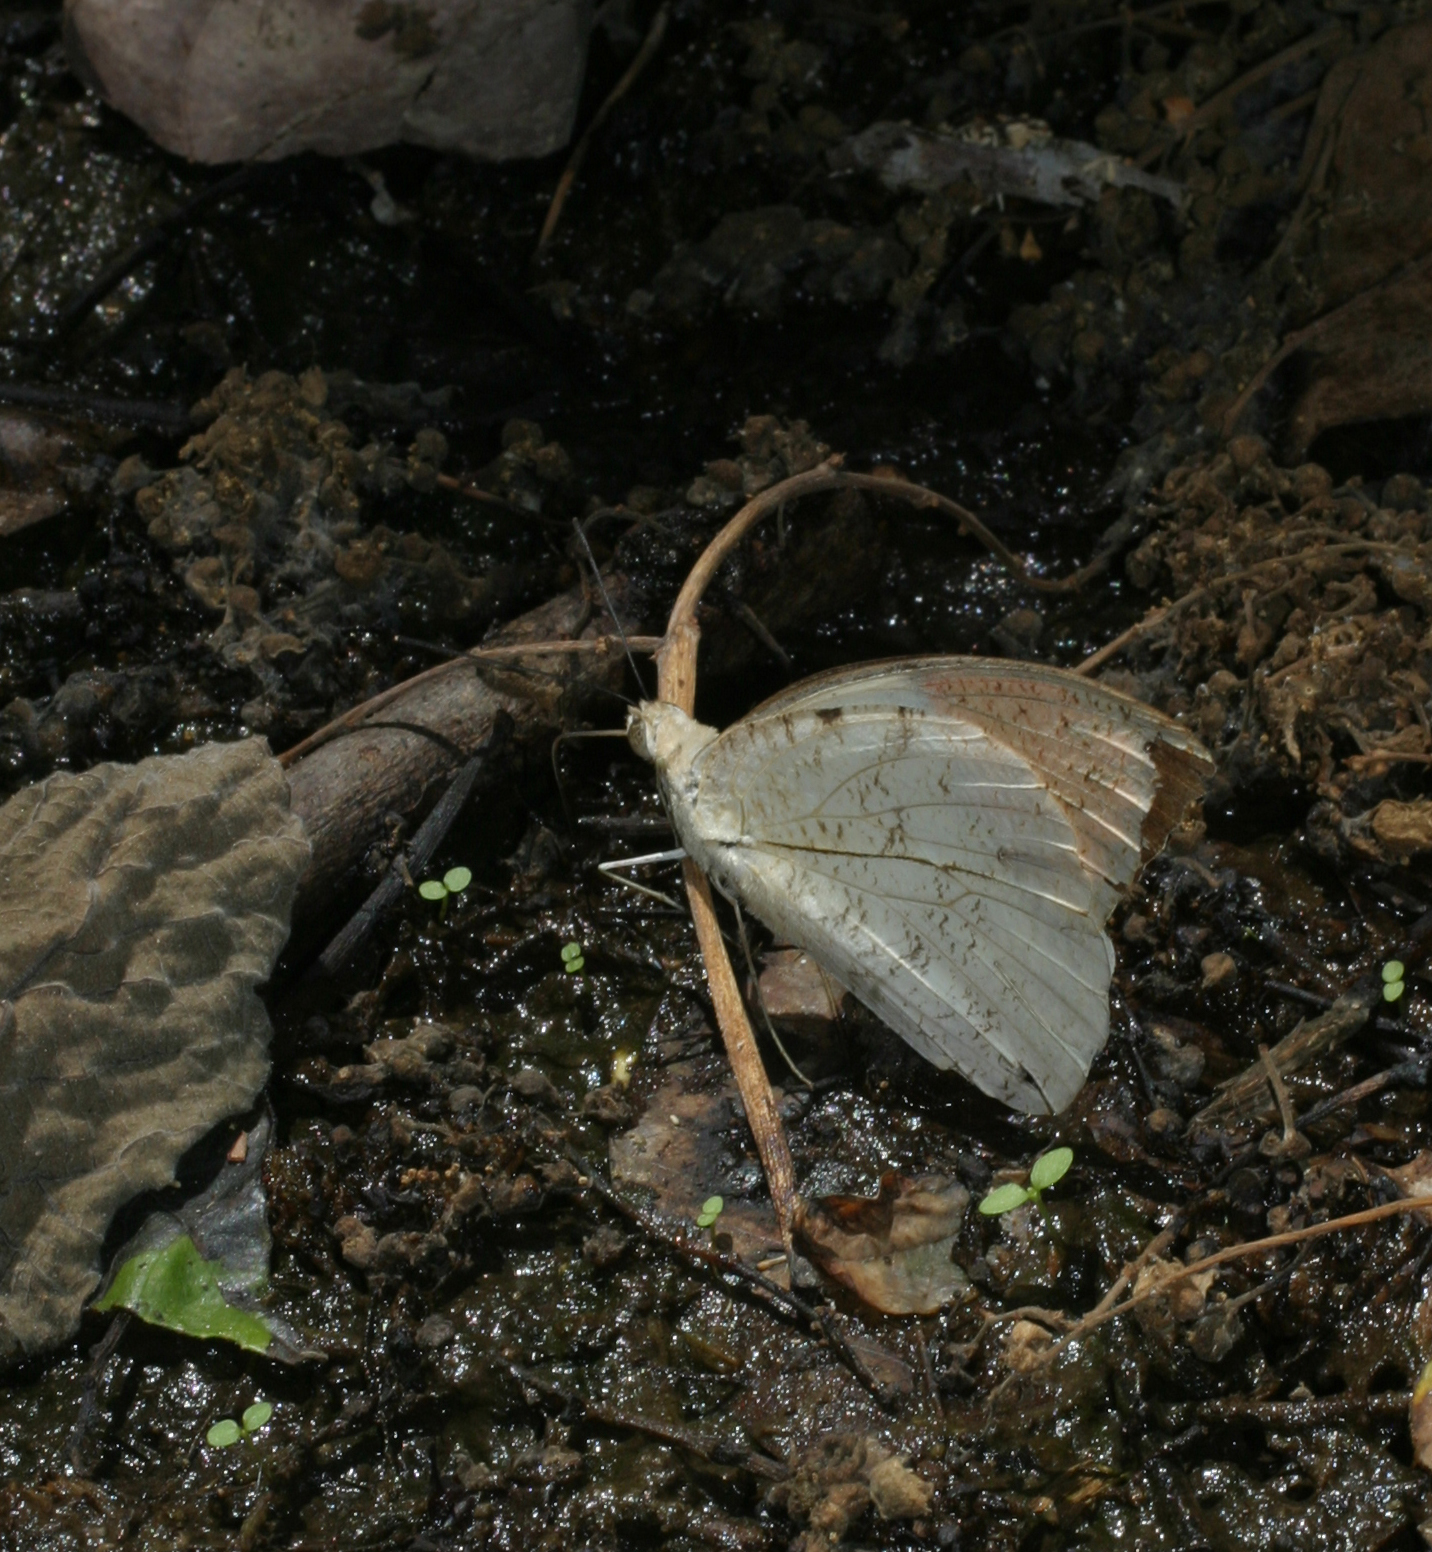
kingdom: Animalia
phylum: Arthropoda
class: Insecta
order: Lepidoptera
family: Pieridae
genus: Hebomoia
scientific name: Hebomoia glaucippe
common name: Great orange tip
